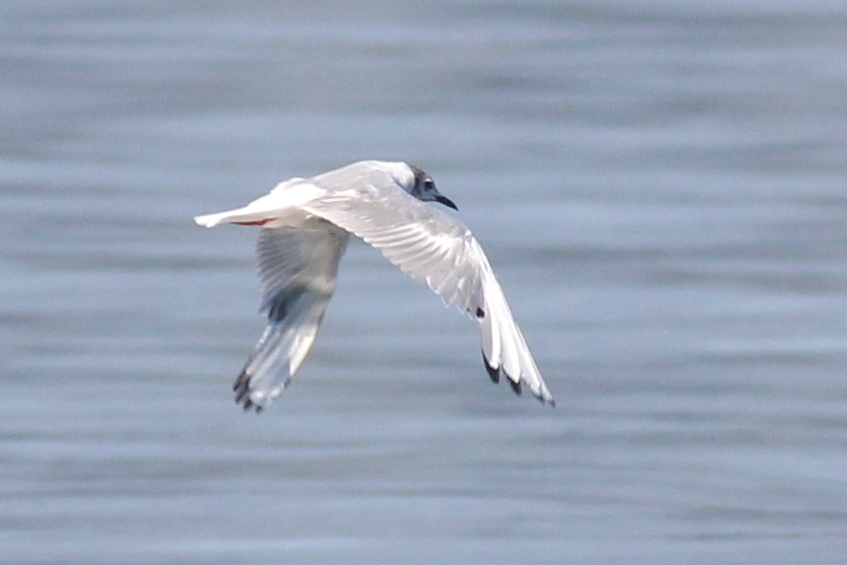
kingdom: Animalia
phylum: Chordata
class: Aves
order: Charadriiformes
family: Laridae
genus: Chroicocephalus
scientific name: Chroicocephalus philadelphia
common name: Bonaparte's gull
